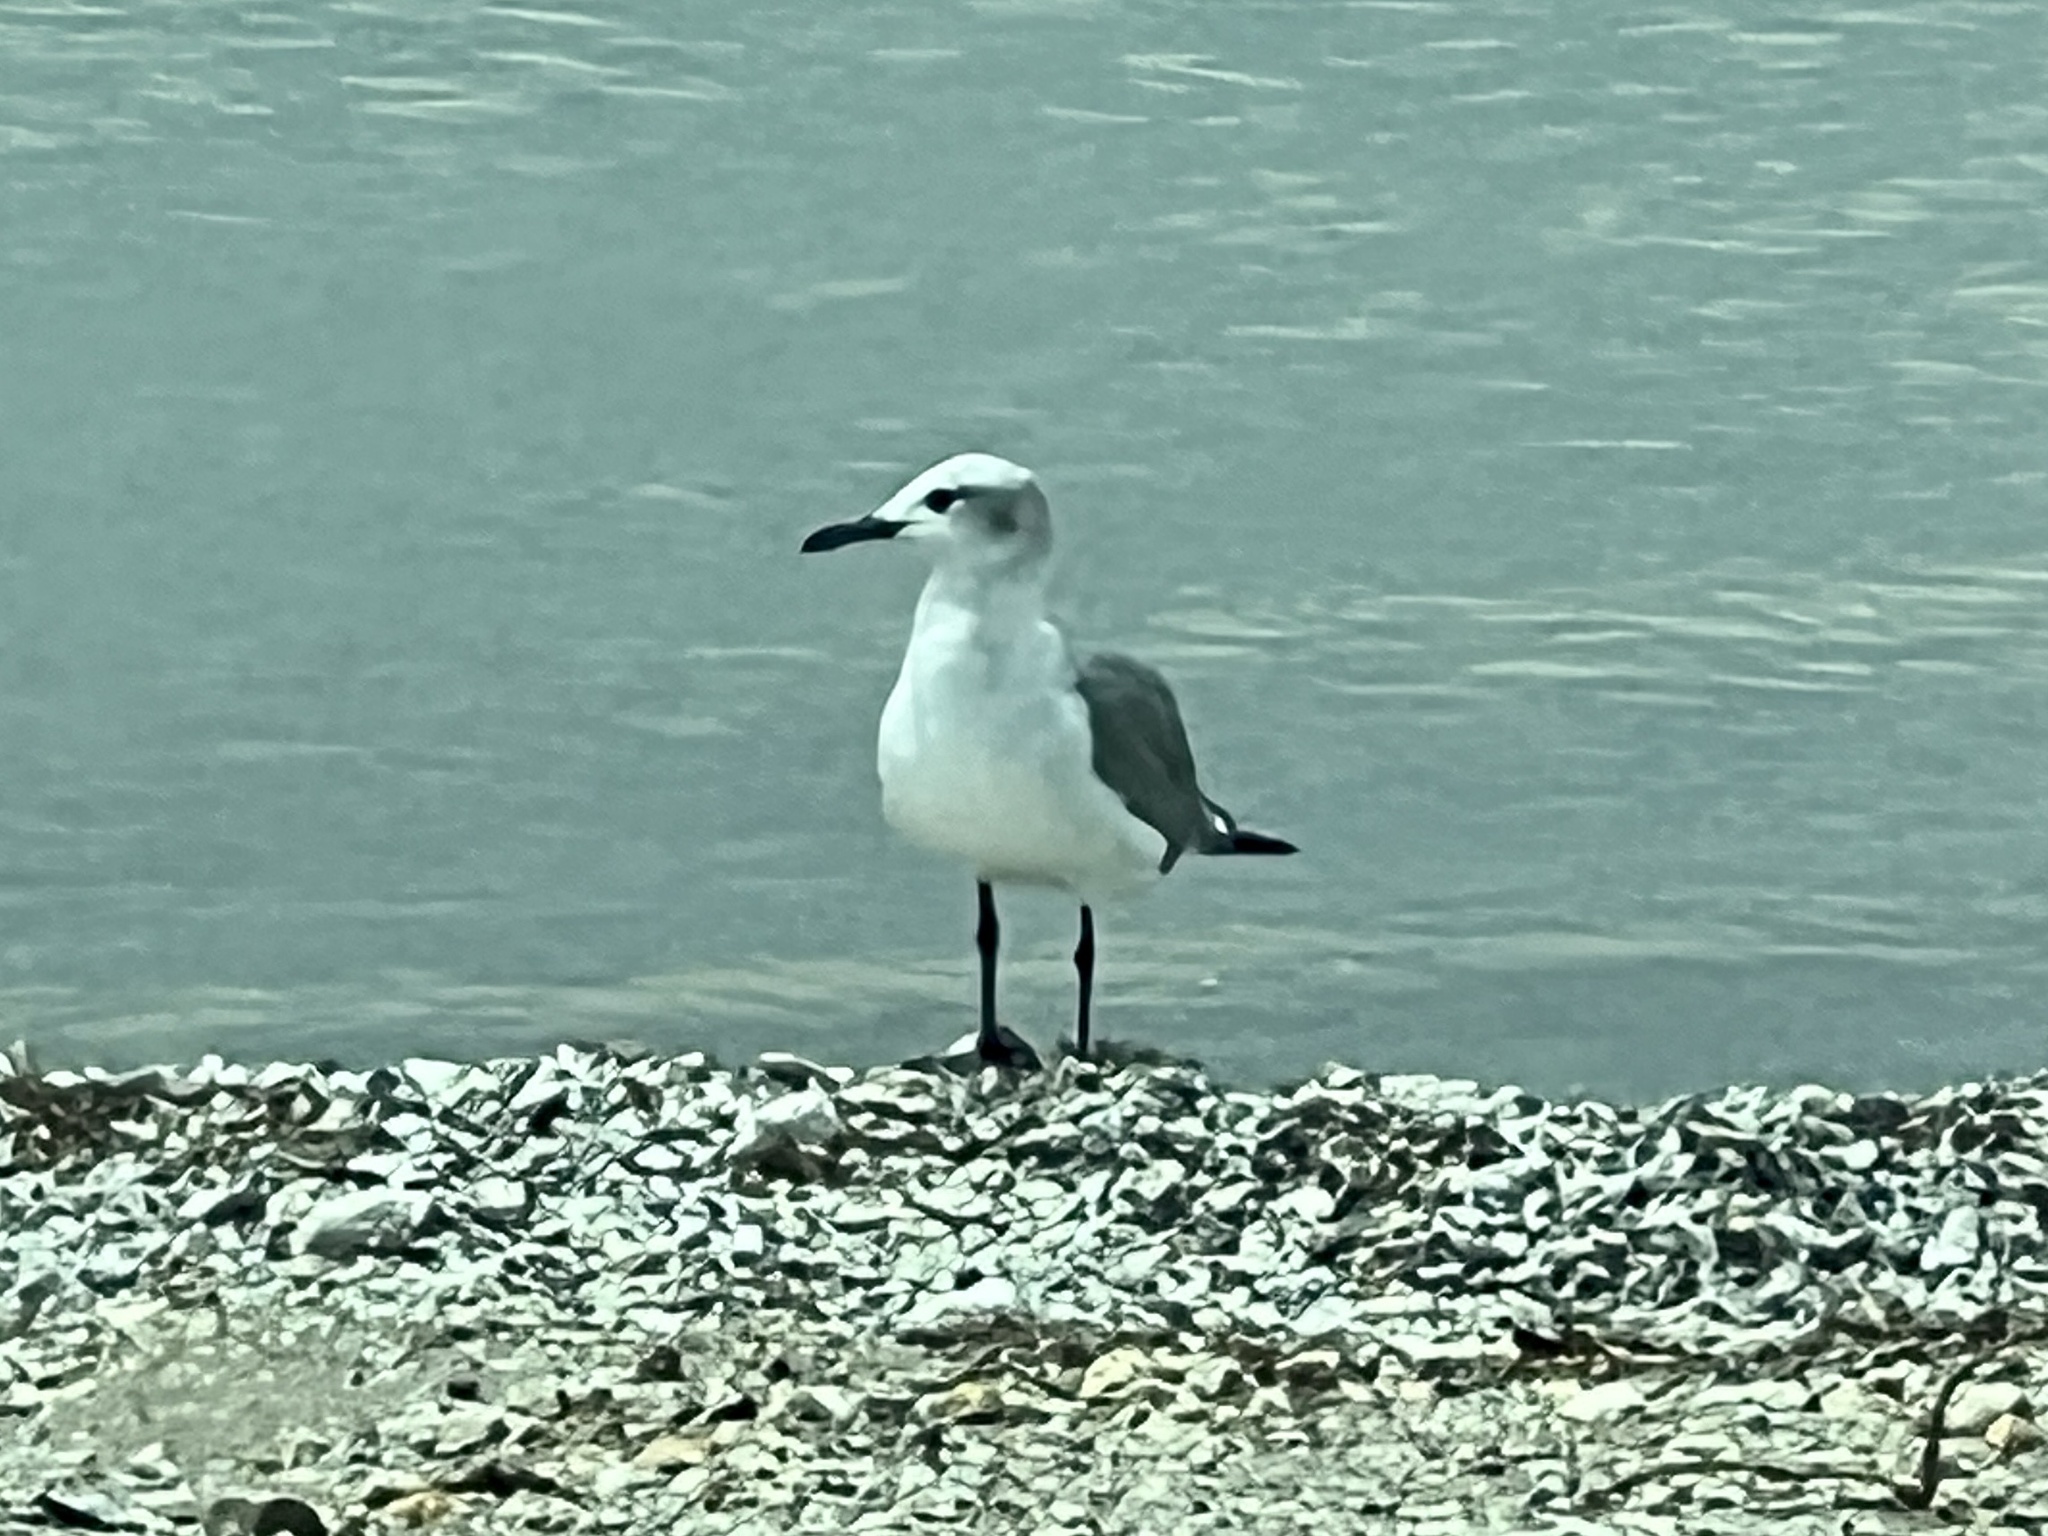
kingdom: Animalia
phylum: Chordata
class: Aves
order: Charadriiformes
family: Laridae
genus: Leucophaeus
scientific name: Leucophaeus atricilla
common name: Laughing gull
